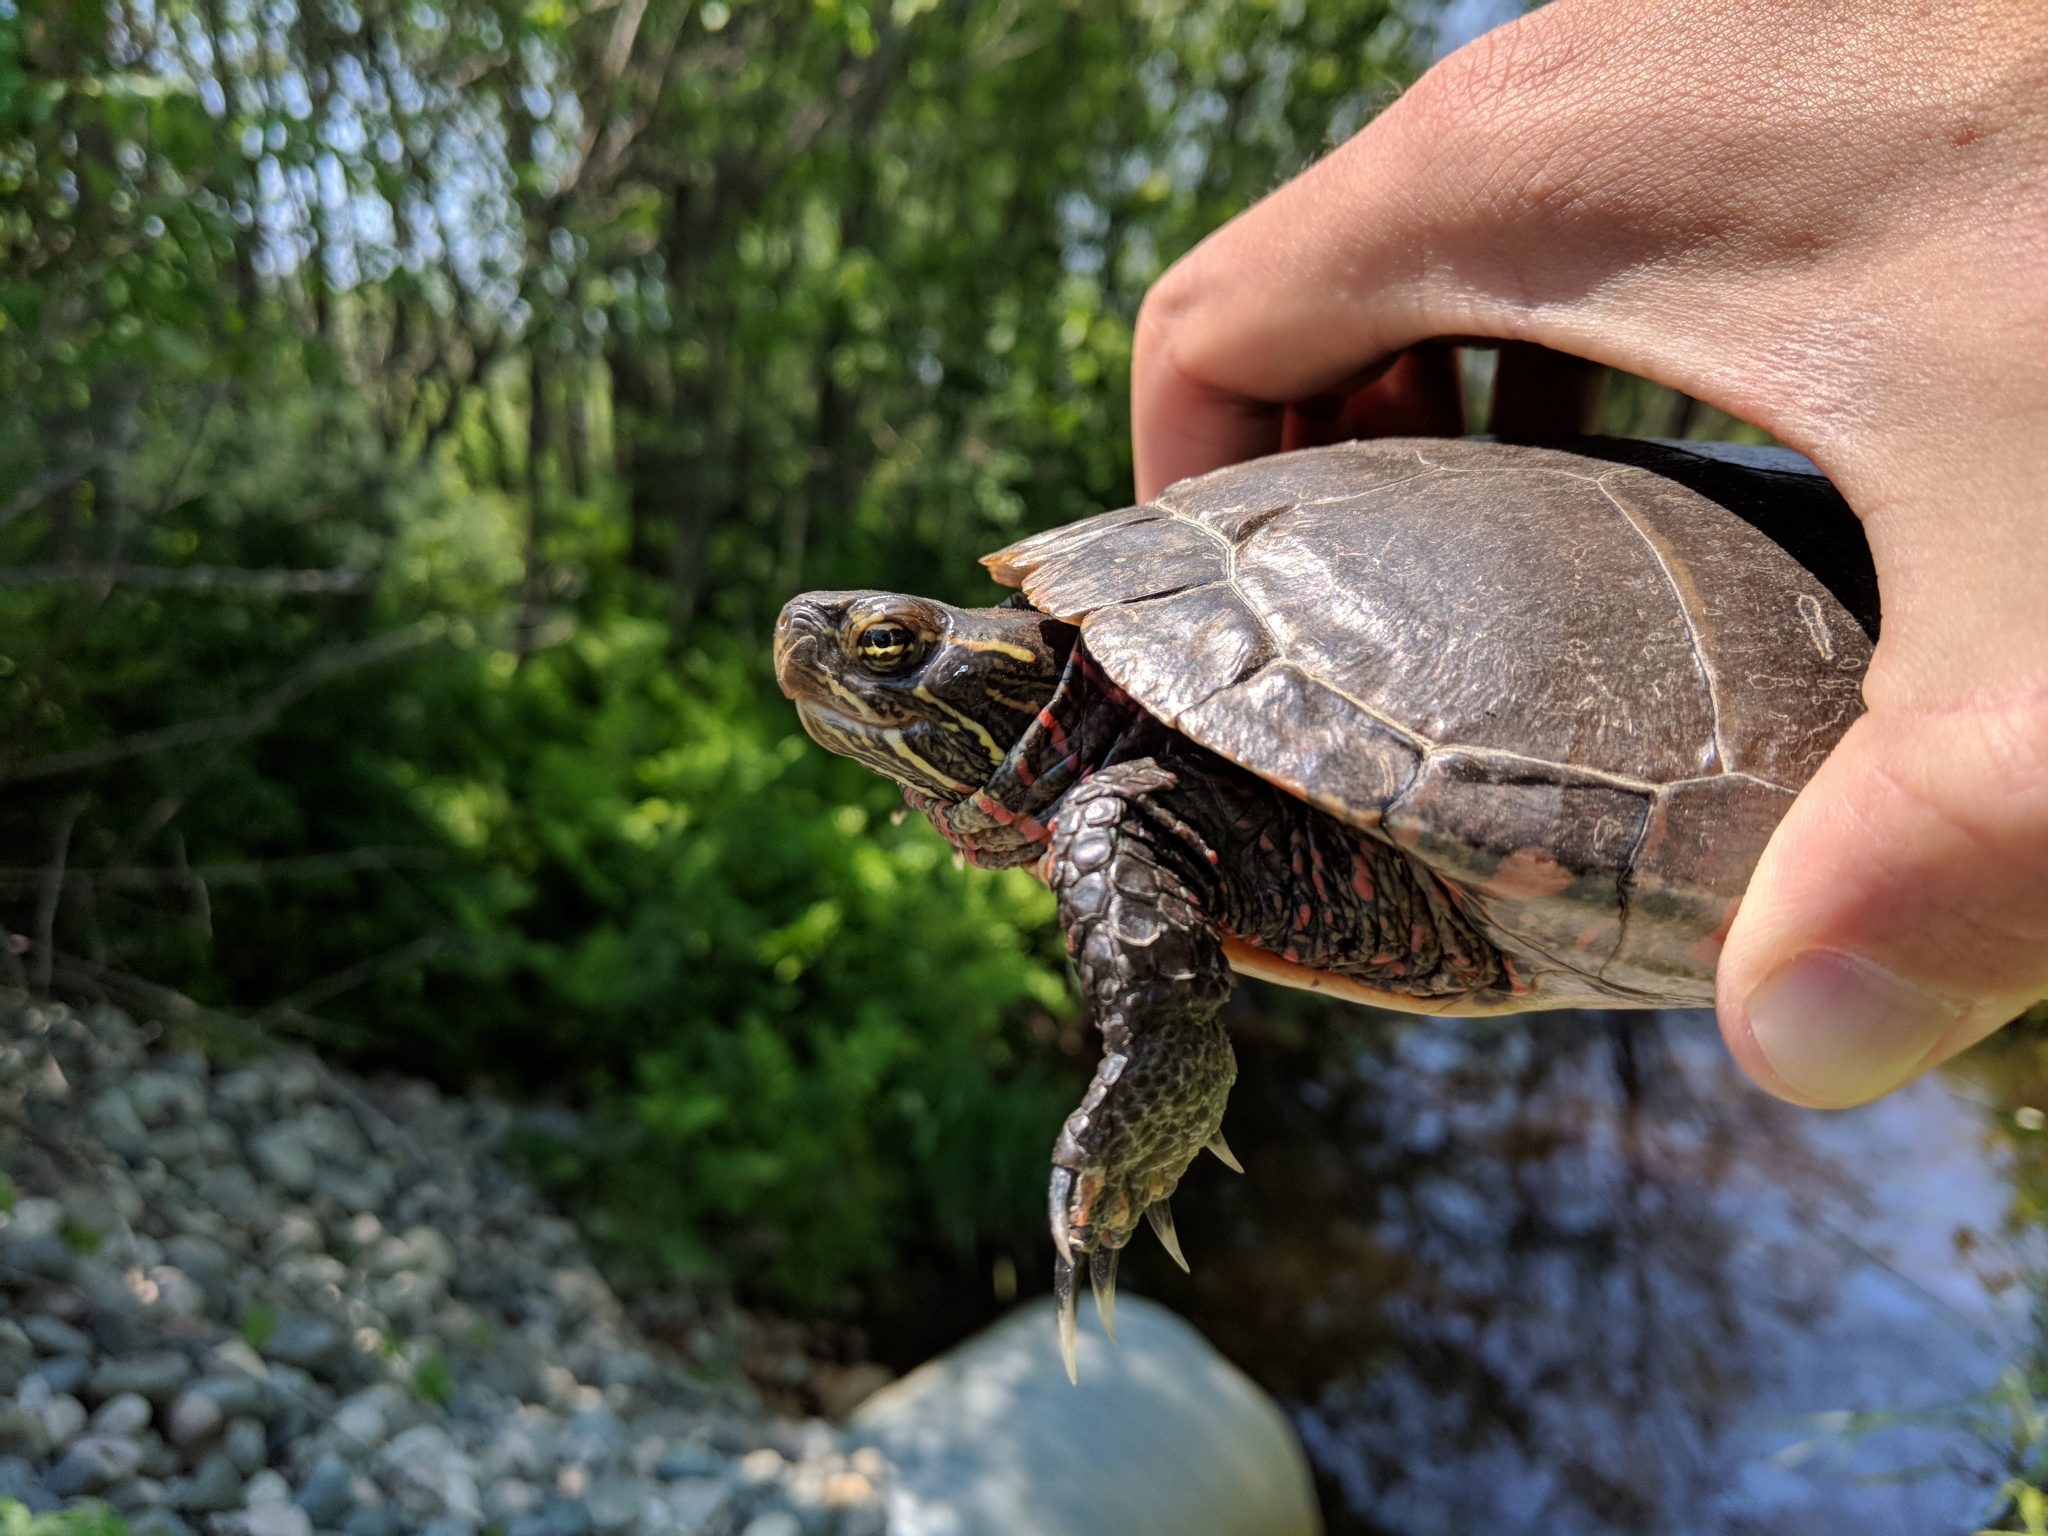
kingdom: Animalia
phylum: Chordata
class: Testudines
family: Emydidae
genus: Chrysemys
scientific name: Chrysemys picta
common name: Painted turtle
